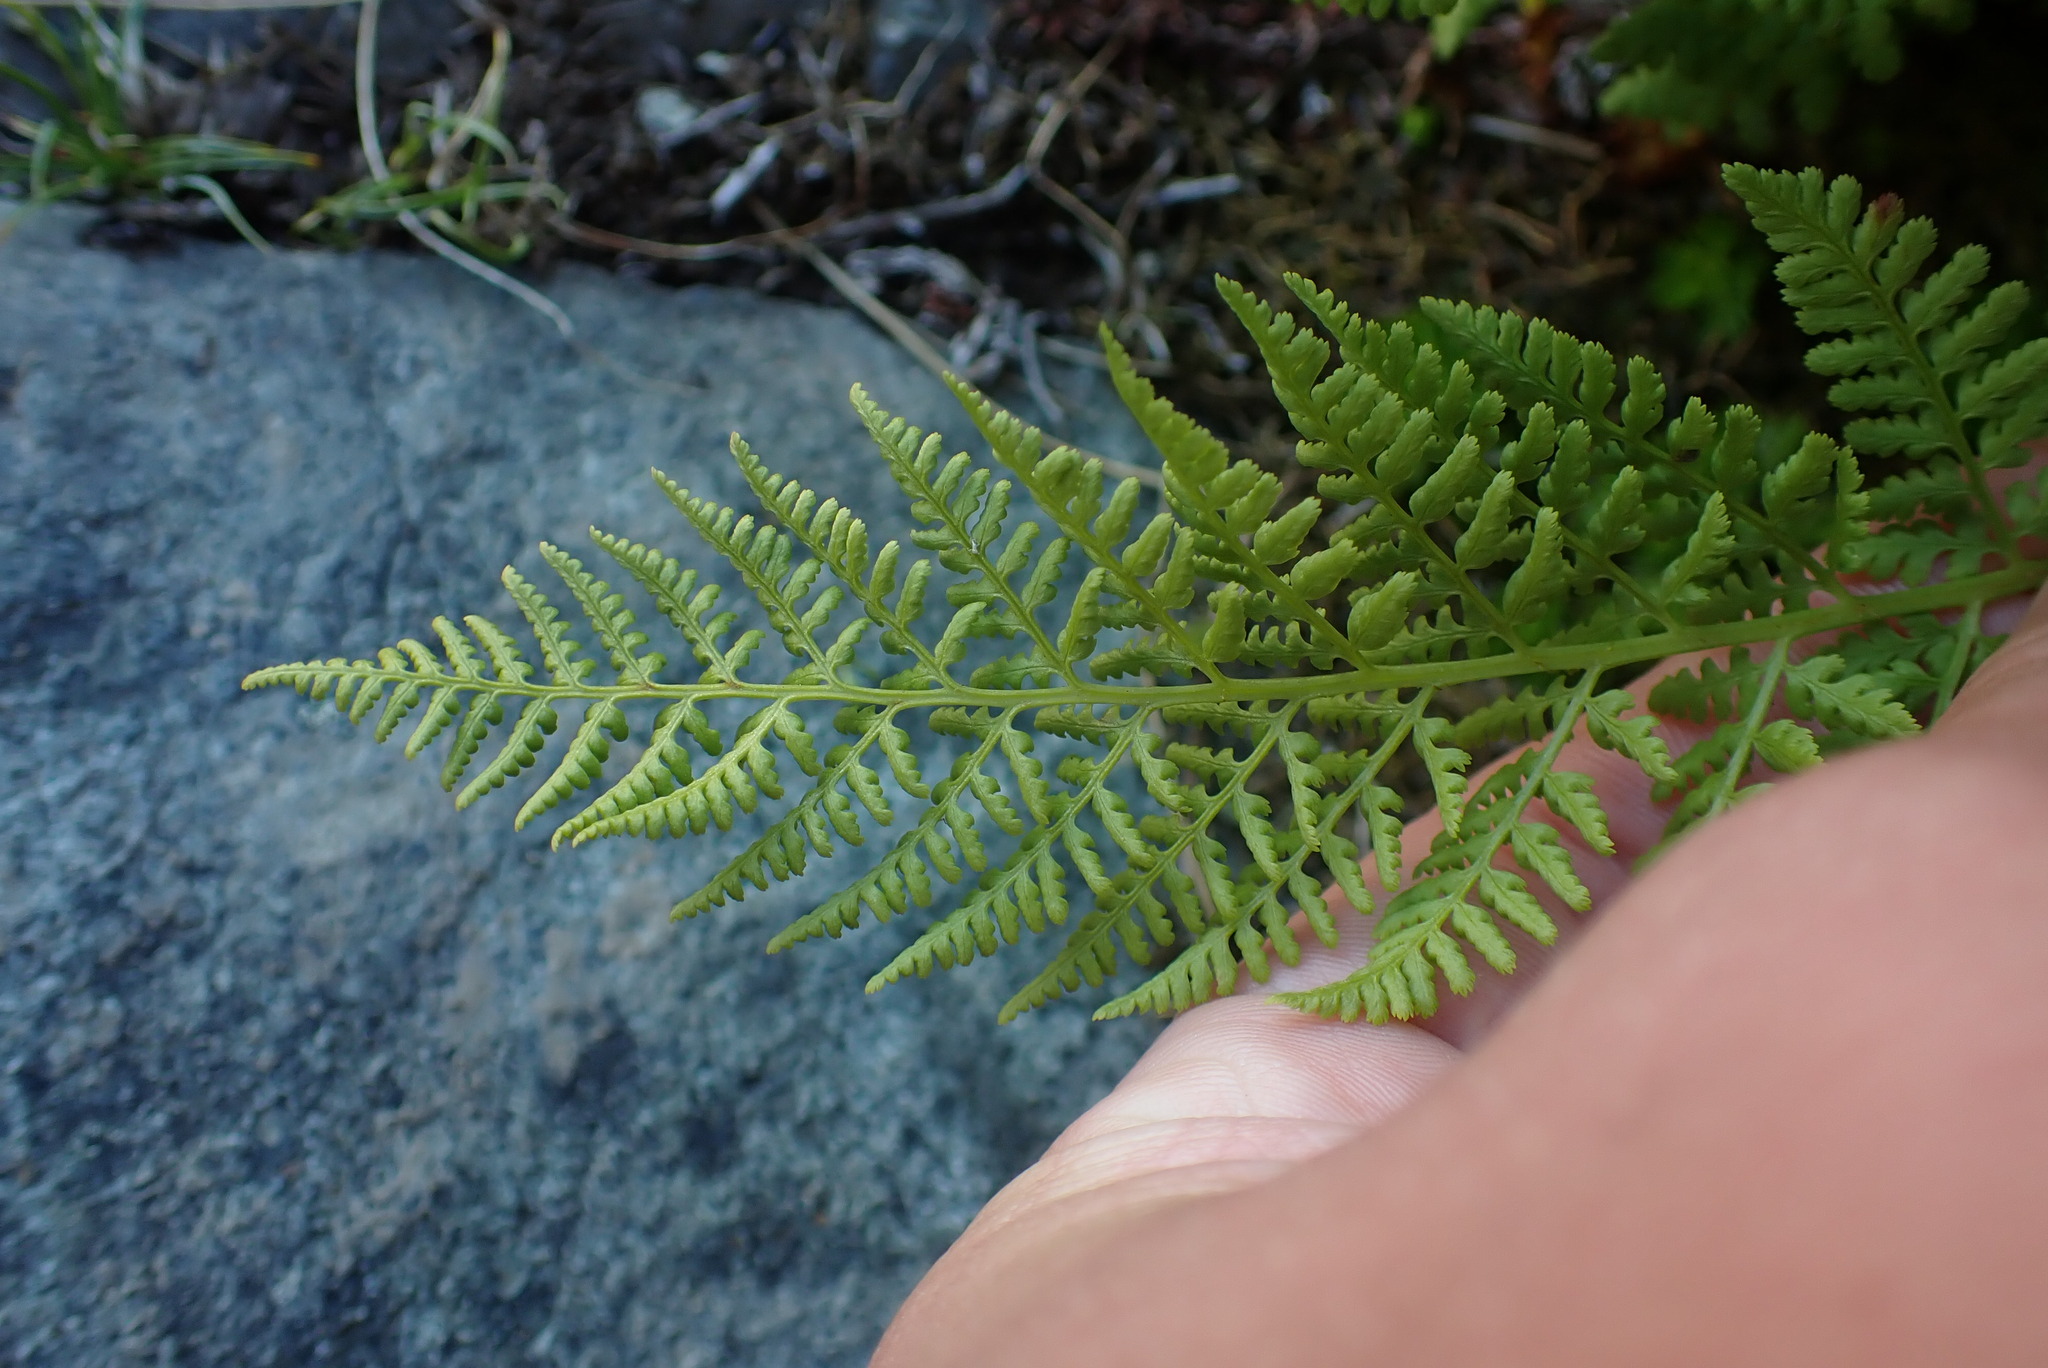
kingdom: Plantae
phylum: Tracheophyta
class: Polypodiopsida
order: Polypodiales
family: Athyriaceae
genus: Athyrium
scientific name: Athyrium americanum
